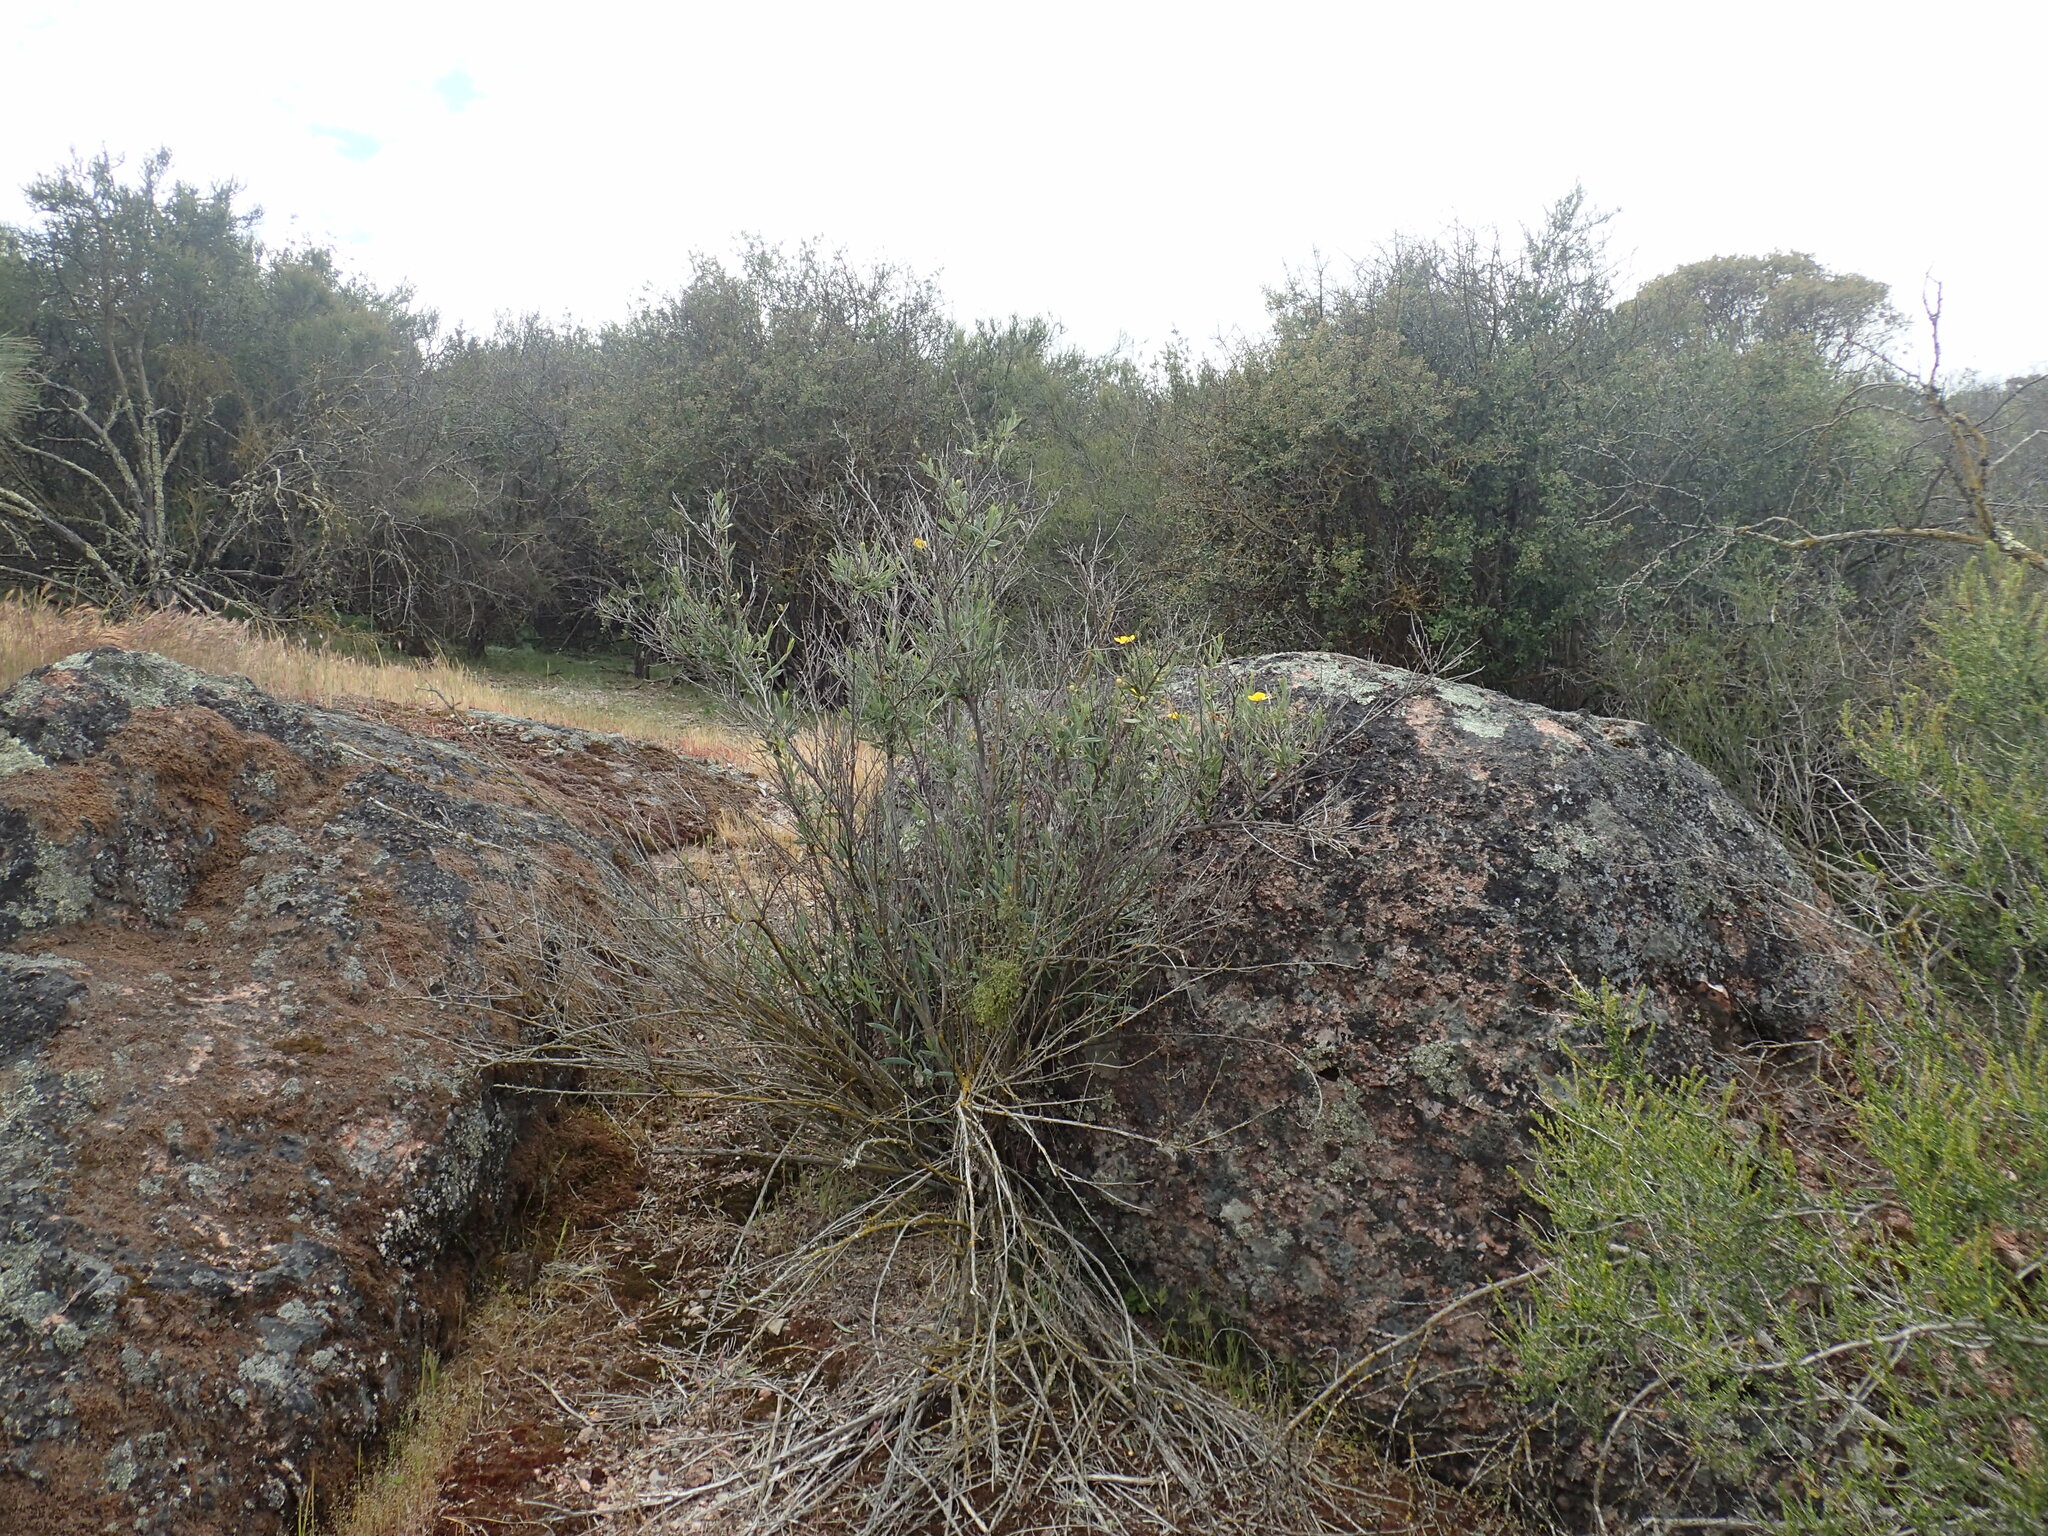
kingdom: Plantae
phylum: Tracheophyta
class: Magnoliopsida
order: Ranunculales
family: Papaveraceae
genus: Dendromecon
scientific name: Dendromecon rigida
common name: Tree poppy
